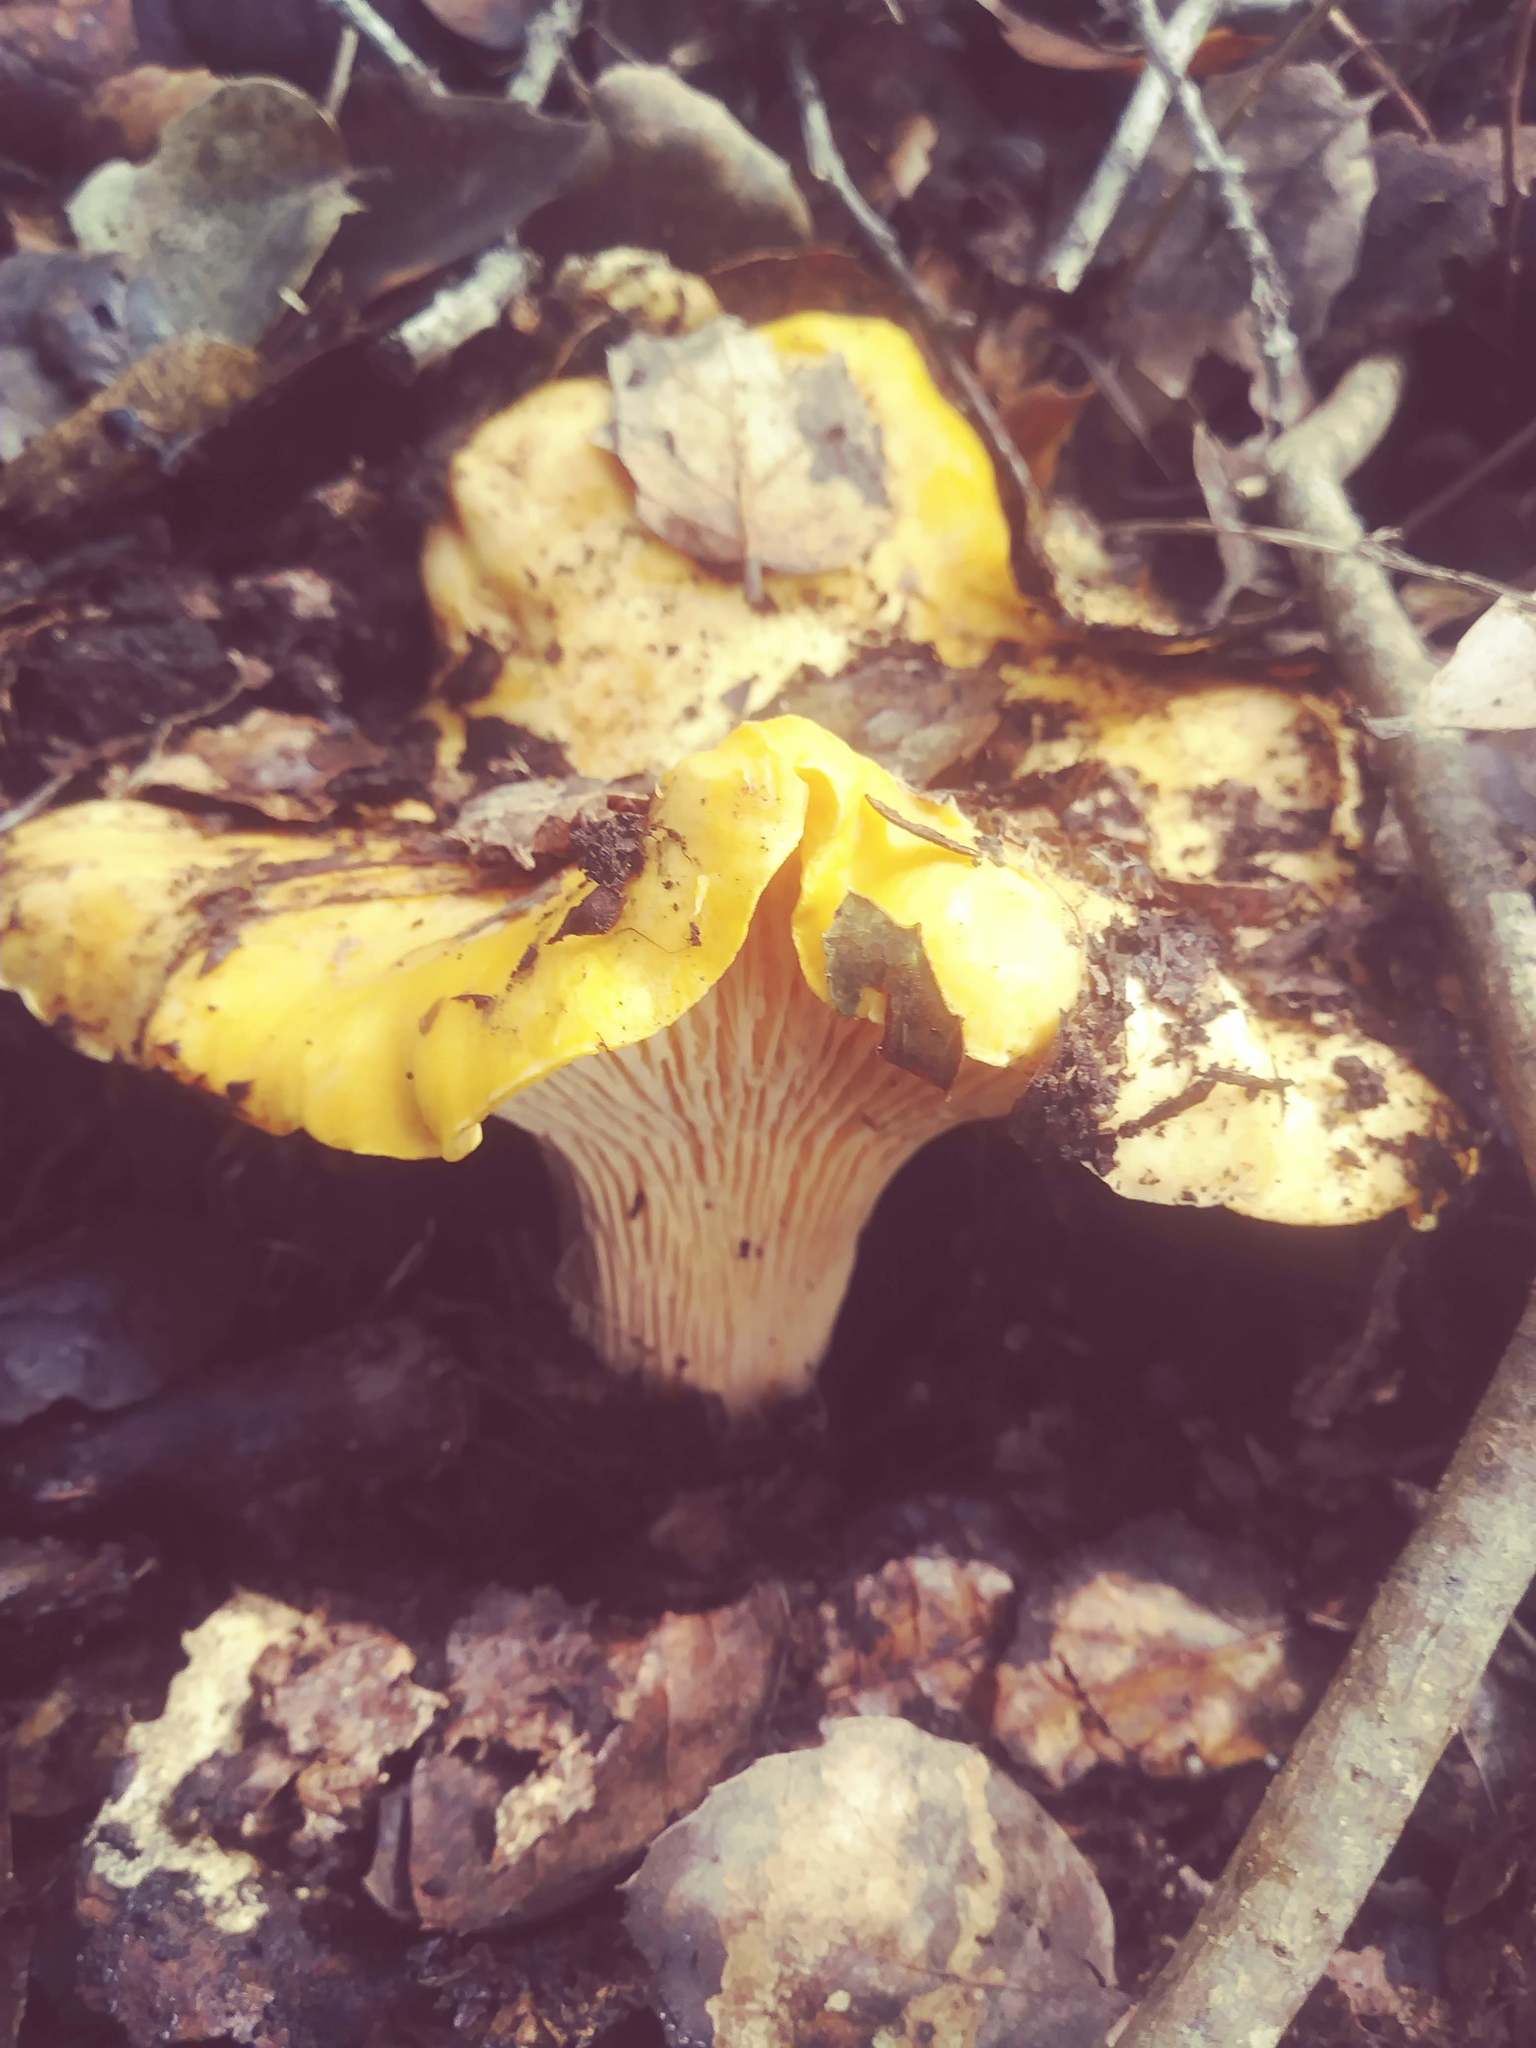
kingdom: Fungi
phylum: Basidiomycota
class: Agaricomycetes
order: Cantharellales
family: Hydnaceae
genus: Cantharellus
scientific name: Cantharellus californicus
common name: California golden chanterelle
